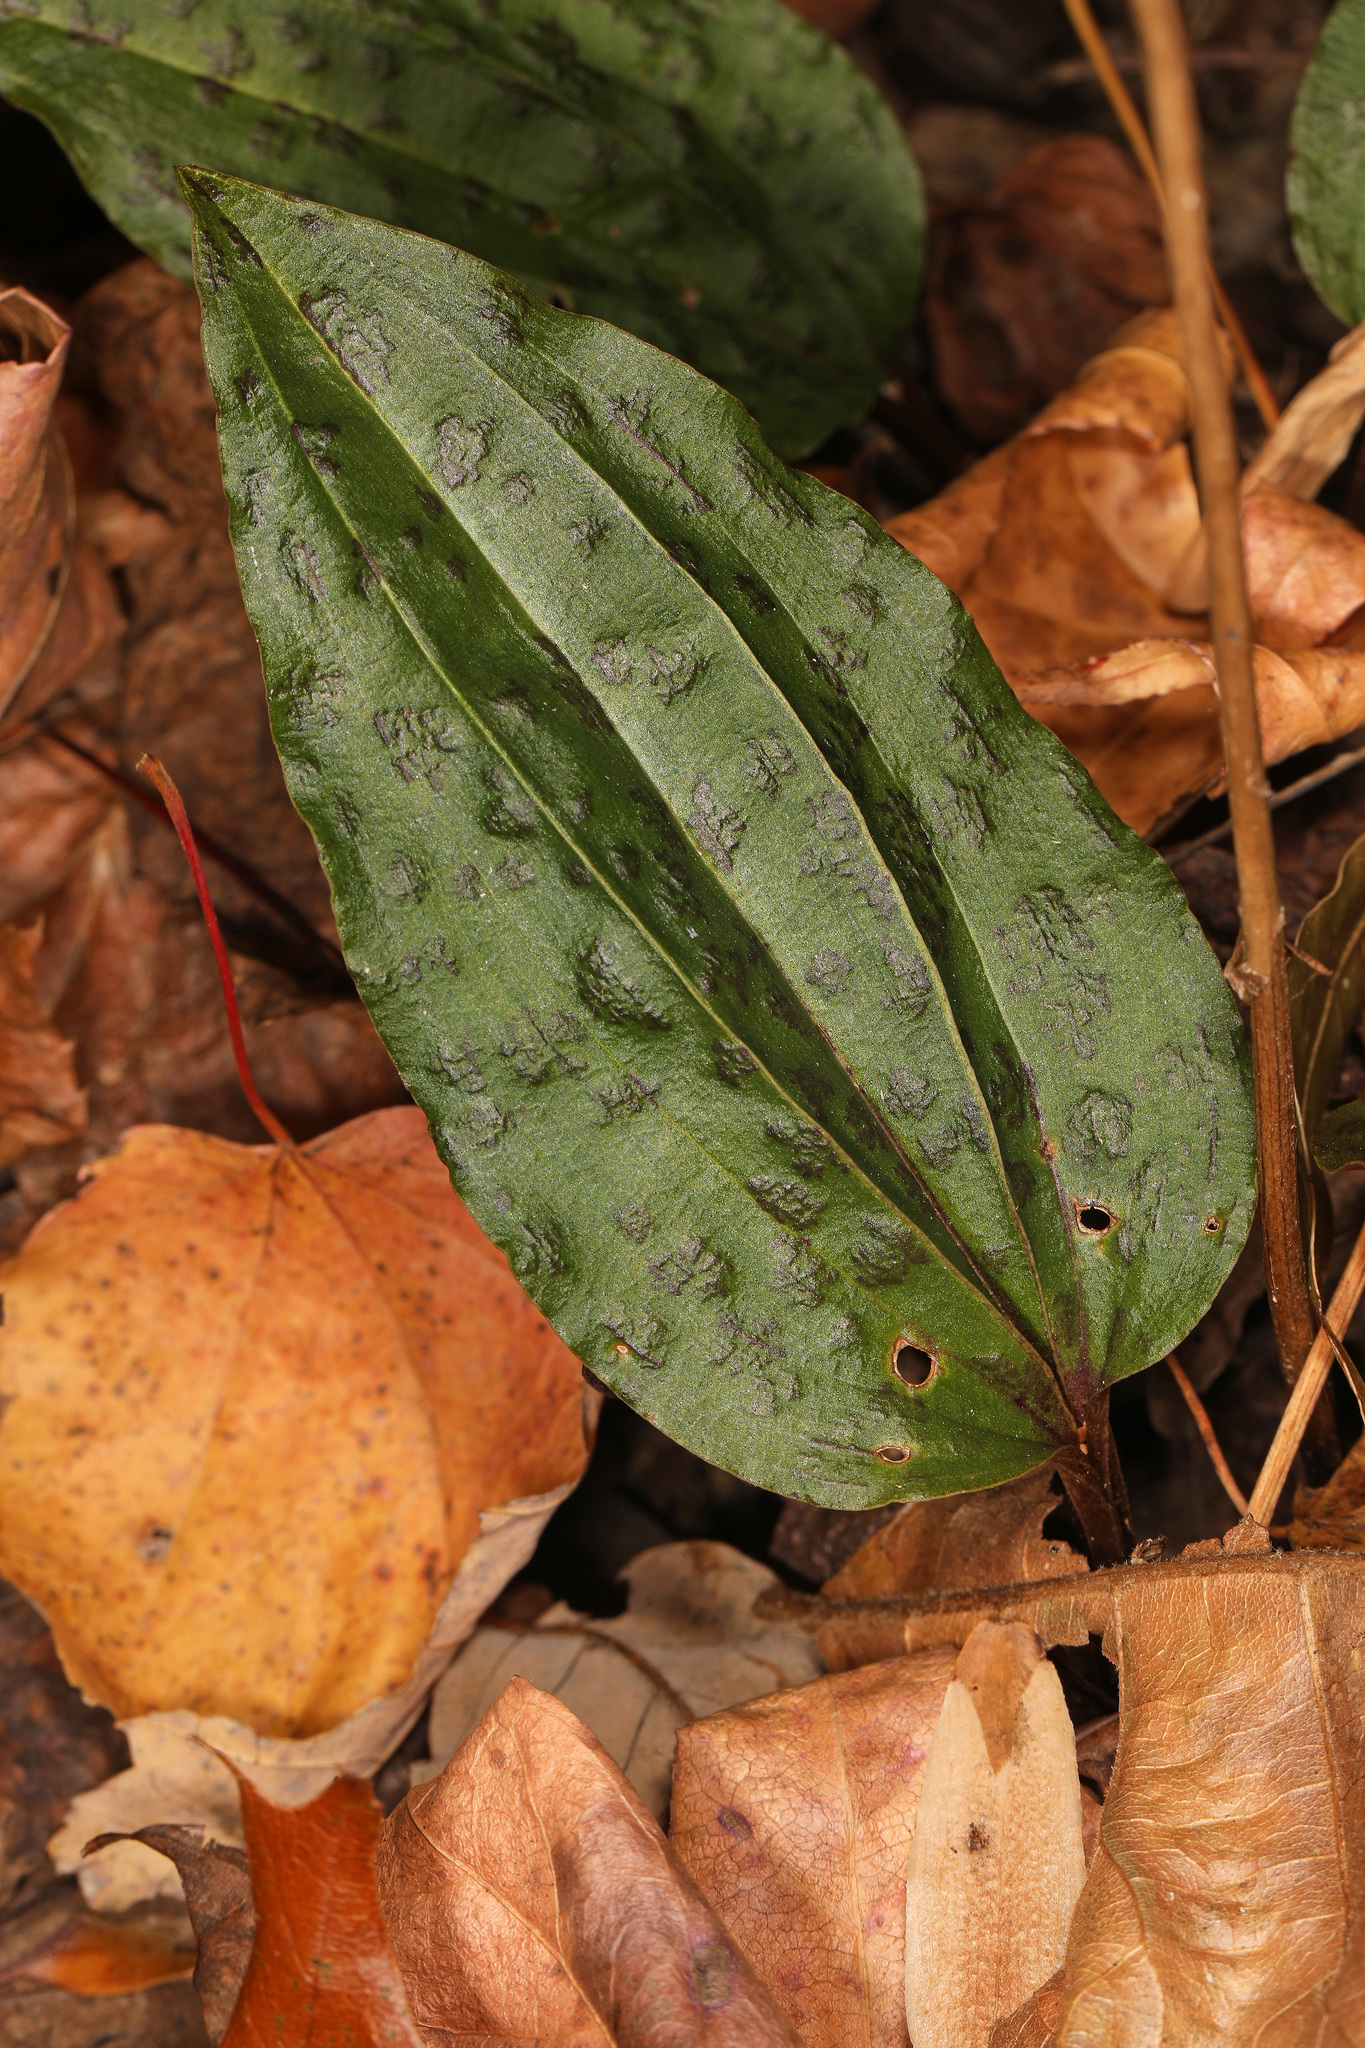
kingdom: Plantae
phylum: Tracheophyta
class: Liliopsida
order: Asparagales
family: Orchidaceae
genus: Tipularia
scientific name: Tipularia discolor
